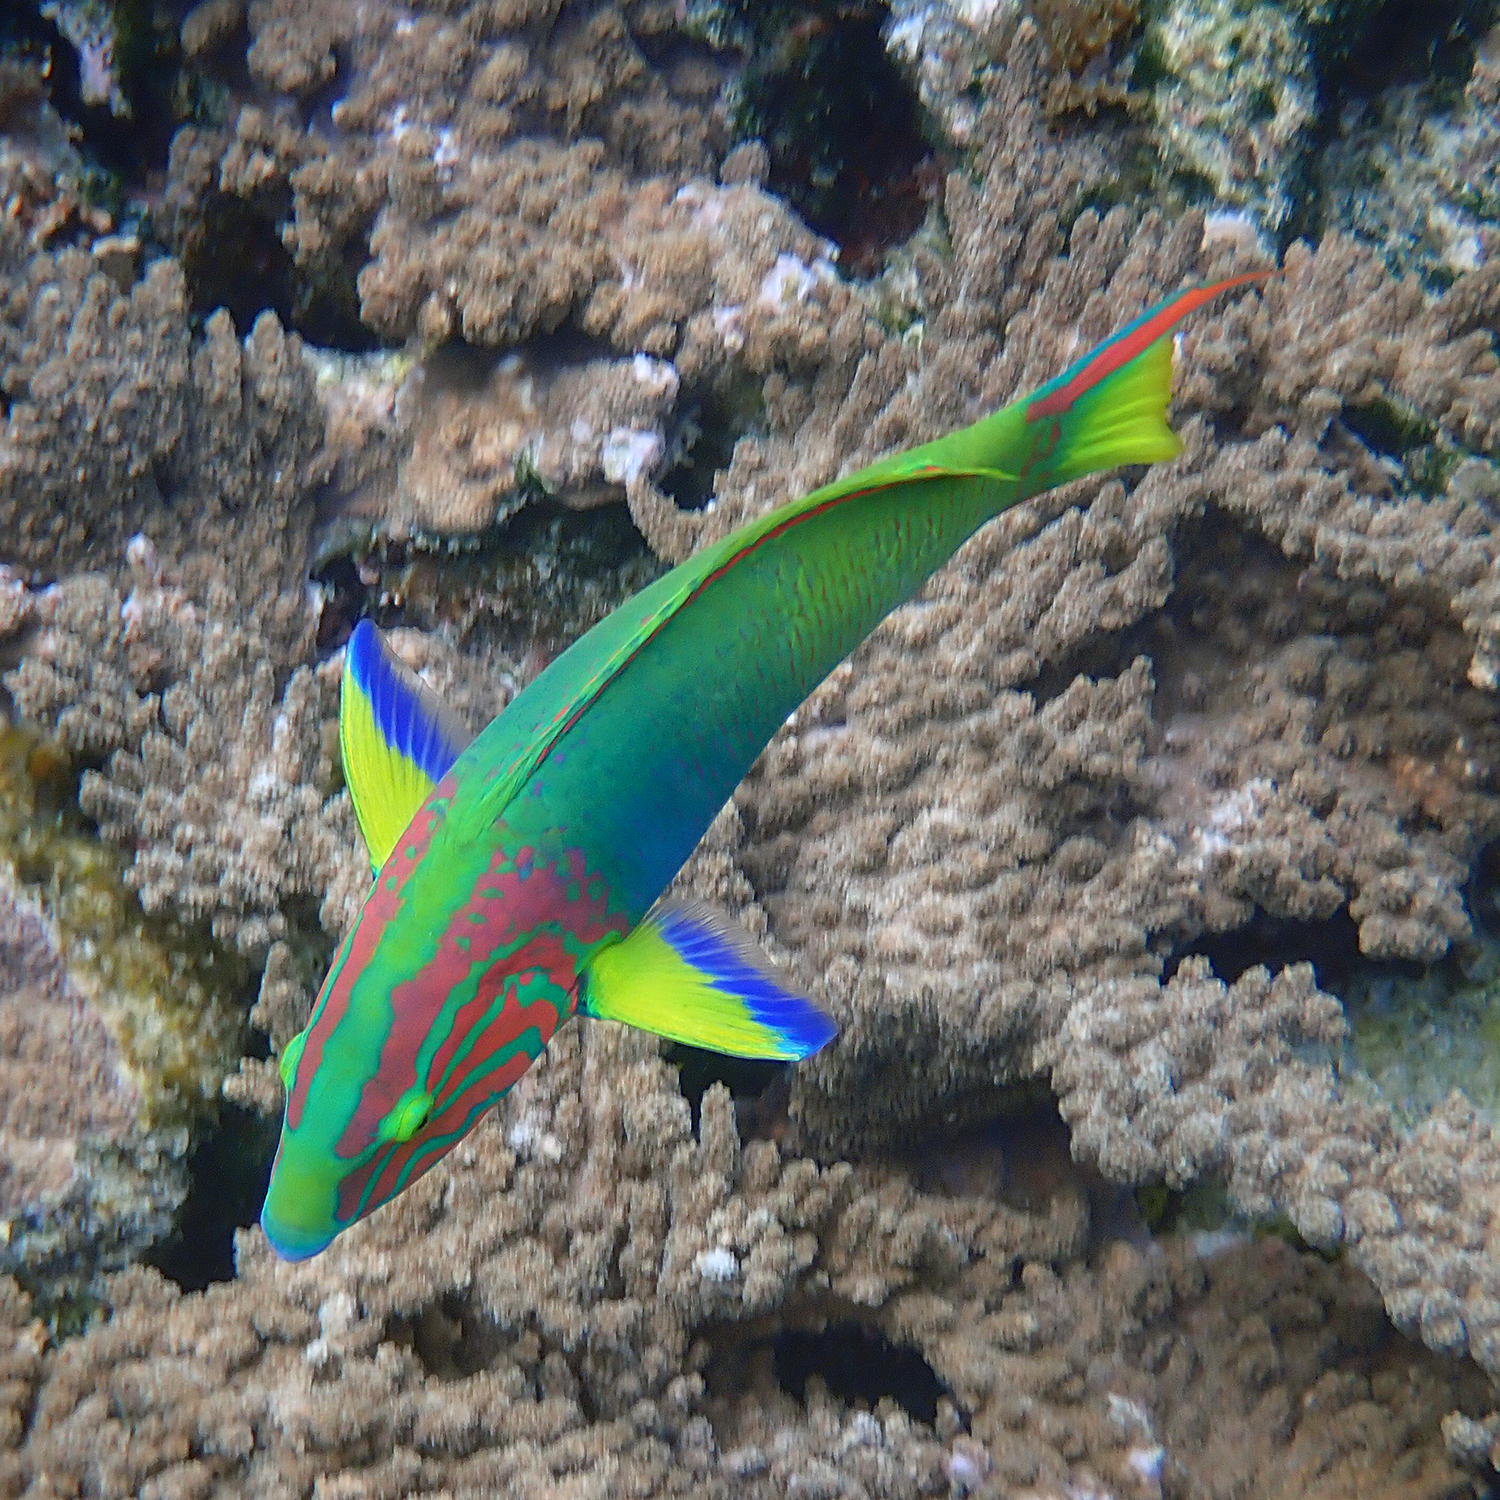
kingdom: Animalia
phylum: Chordata
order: Perciformes
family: Labridae
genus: Thalassoma
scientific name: Thalassoma lutescens
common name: Green moon wrasse
